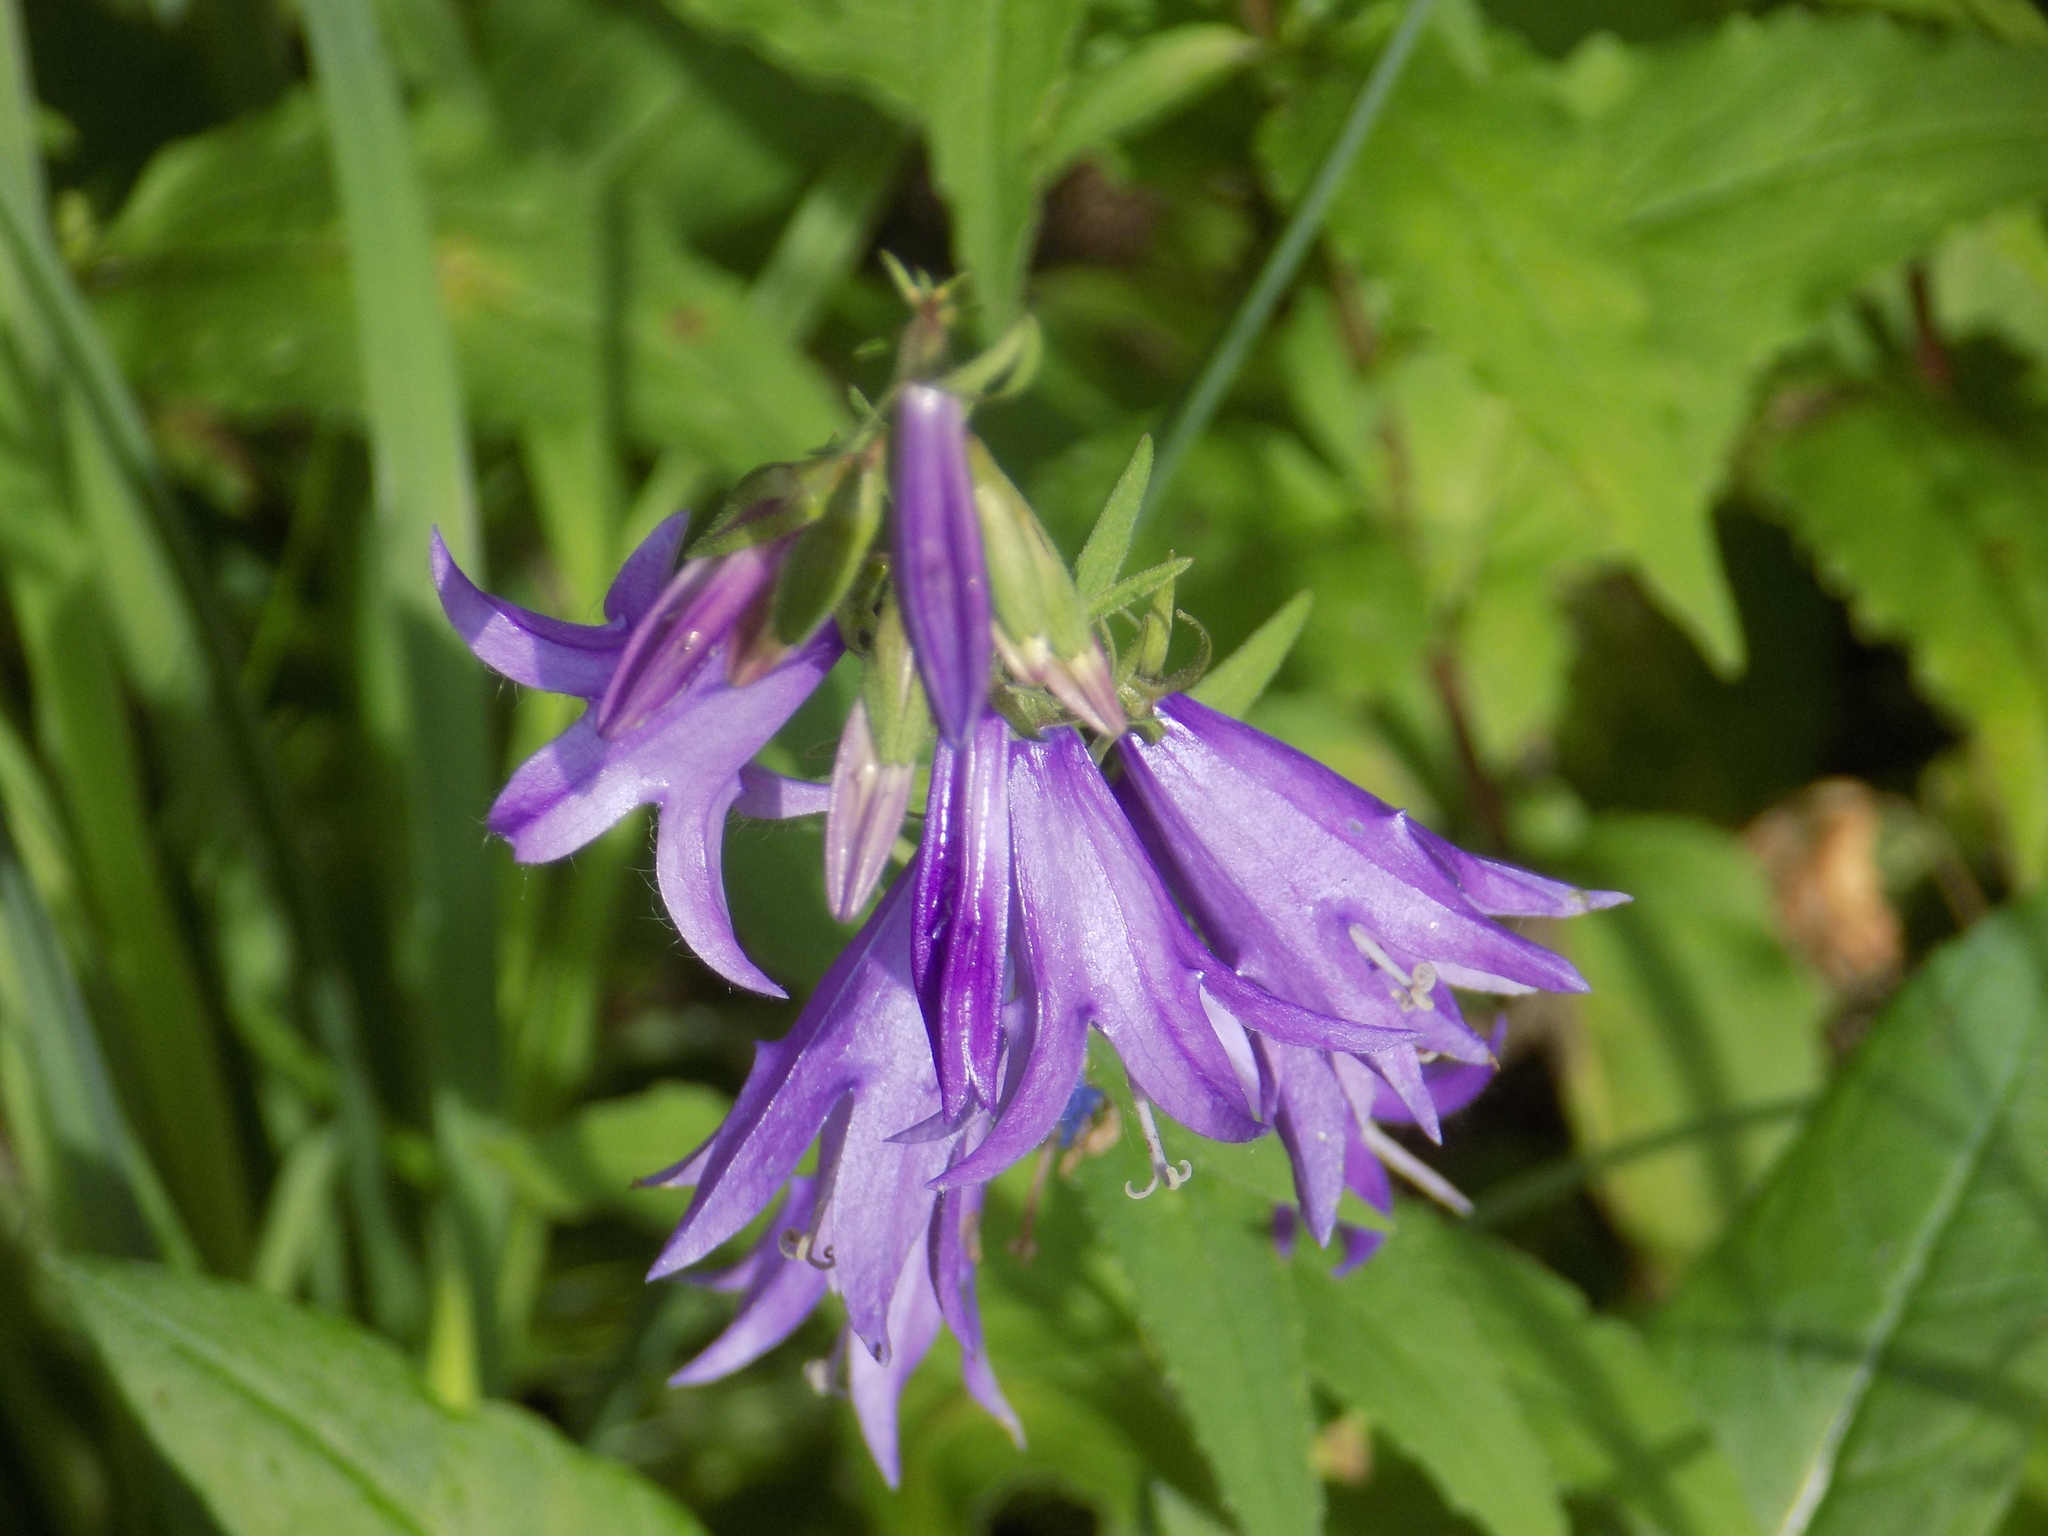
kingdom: Plantae
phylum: Tracheophyta
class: Magnoliopsida
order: Asterales
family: Campanulaceae
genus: Campanula
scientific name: Campanula rapunculoides
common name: Creeping bellflower
